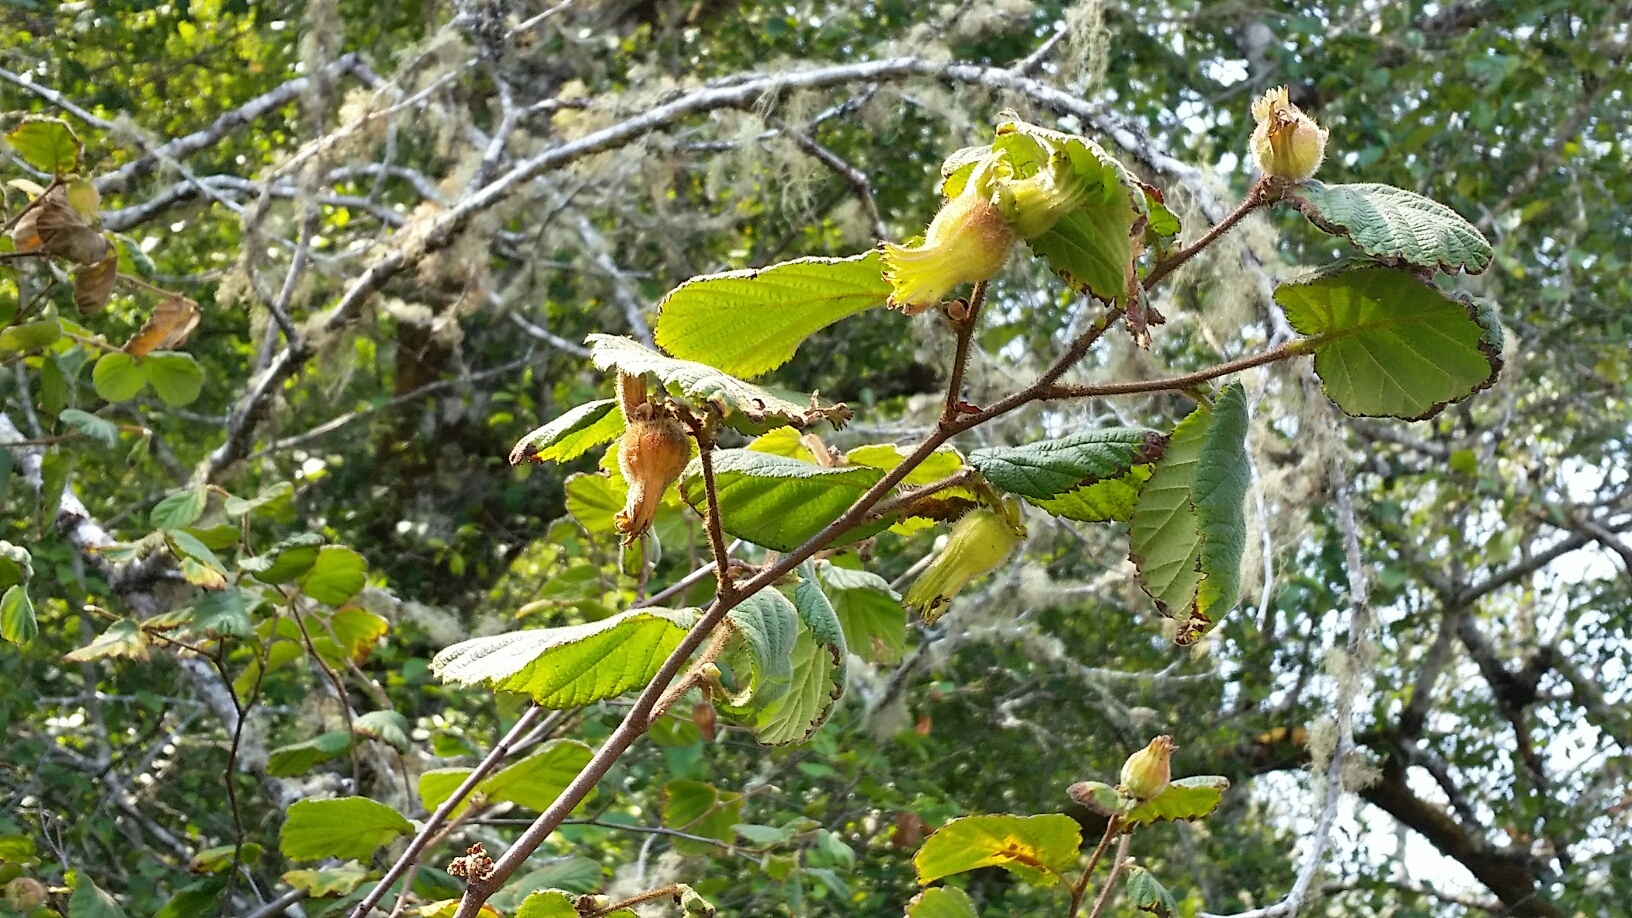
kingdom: Plantae
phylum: Tracheophyta
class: Magnoliopsida
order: Fagales
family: Betulaceae
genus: Corylus
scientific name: Corylus cornuta
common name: Beaked hazel
